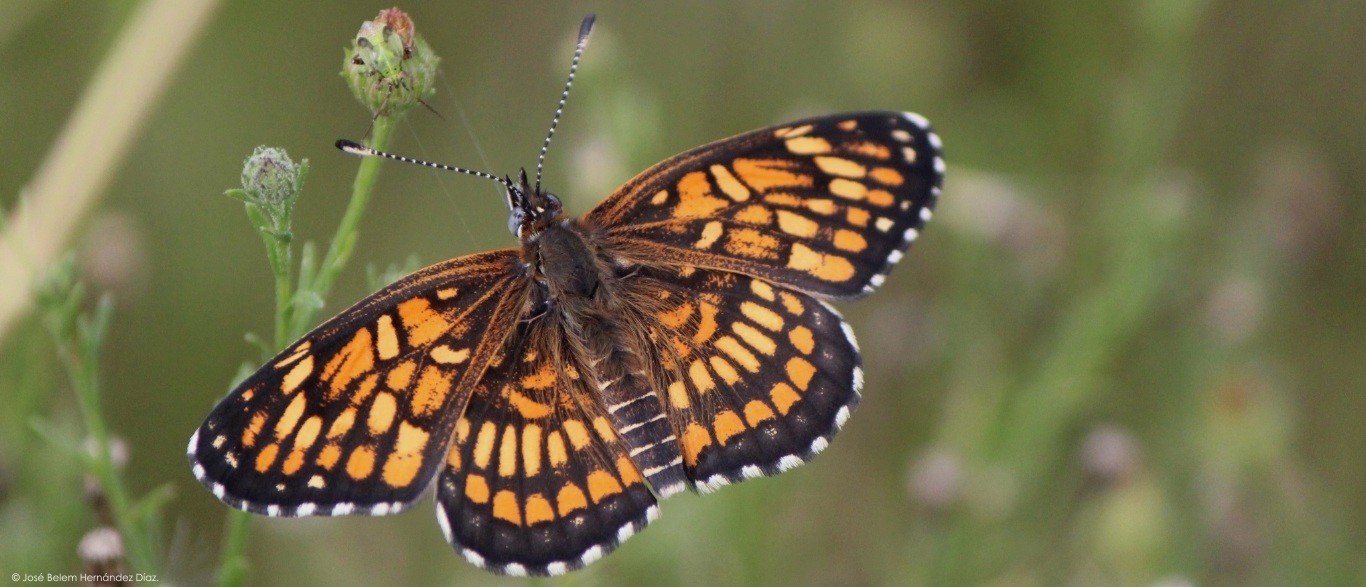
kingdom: Animalia
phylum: Arthropoda
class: Insecta
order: Lepidoptera
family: Nymphalidae
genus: Thessalia
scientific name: Thessalia theona
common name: Nymphalid moth
